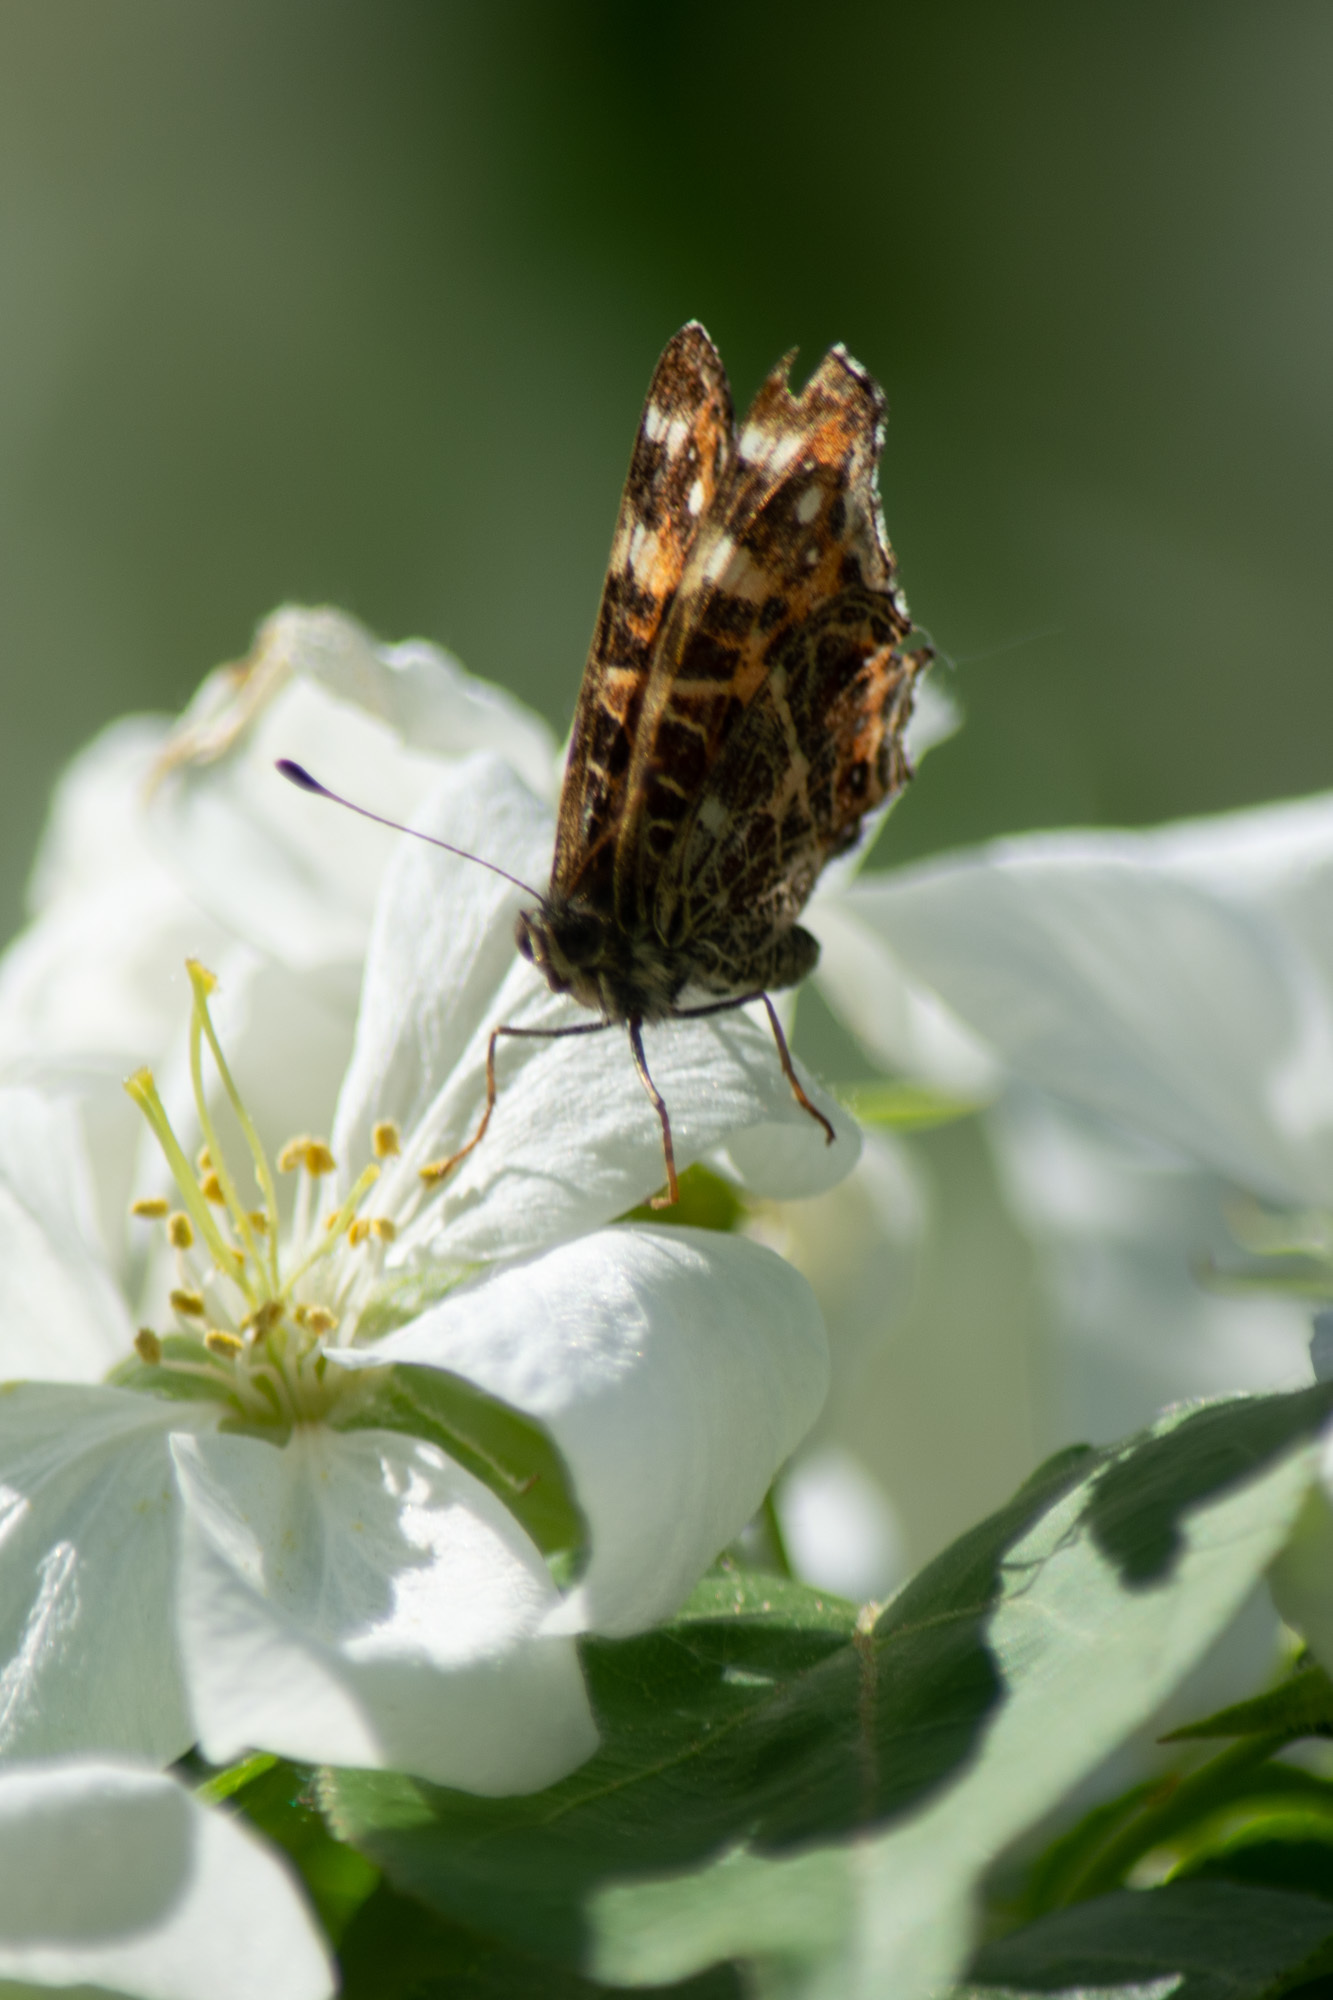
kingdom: Animalia
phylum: Arthropoda
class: Insecta
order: Lepidoptera
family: Nymphalidae
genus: Araschnia
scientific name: Araschnia levana
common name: Map butterfly
